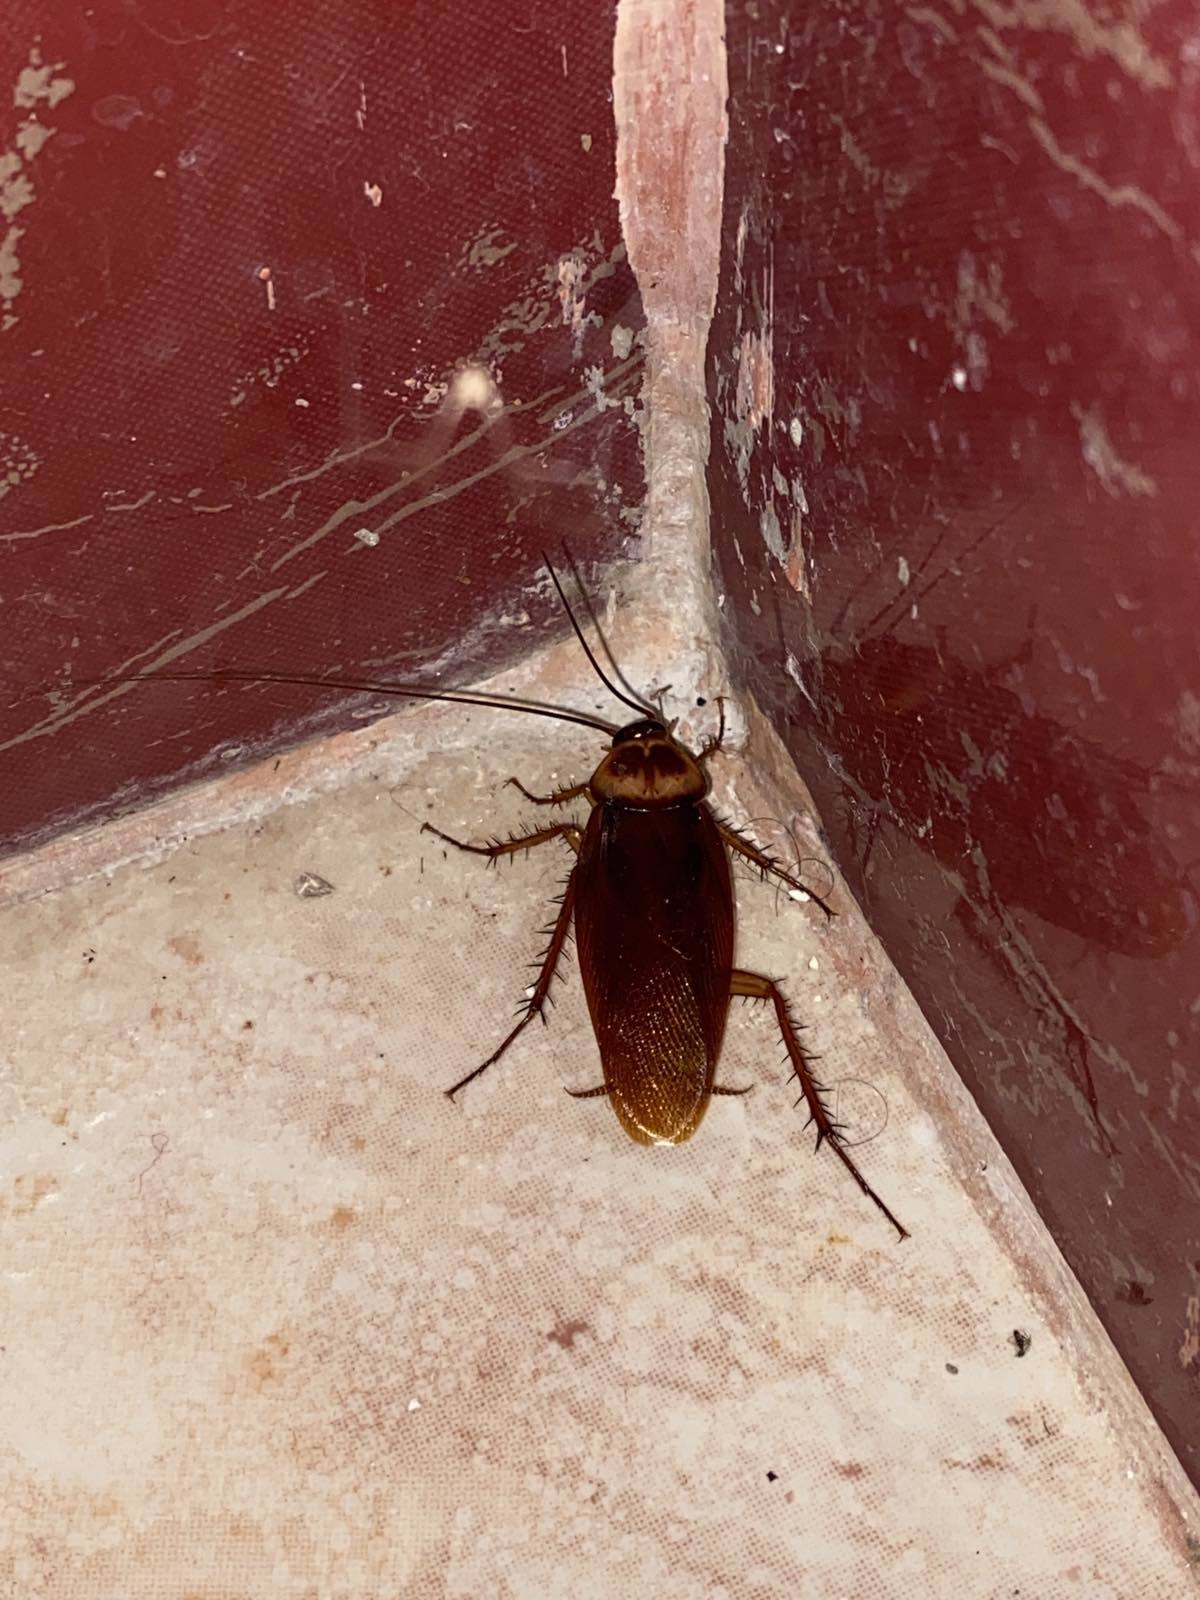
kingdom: Animalia
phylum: Arthropoda
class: Insecta
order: Blattodea
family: Blattidae
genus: Periplaneta
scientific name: Periplaneta americana
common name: American cockroach
